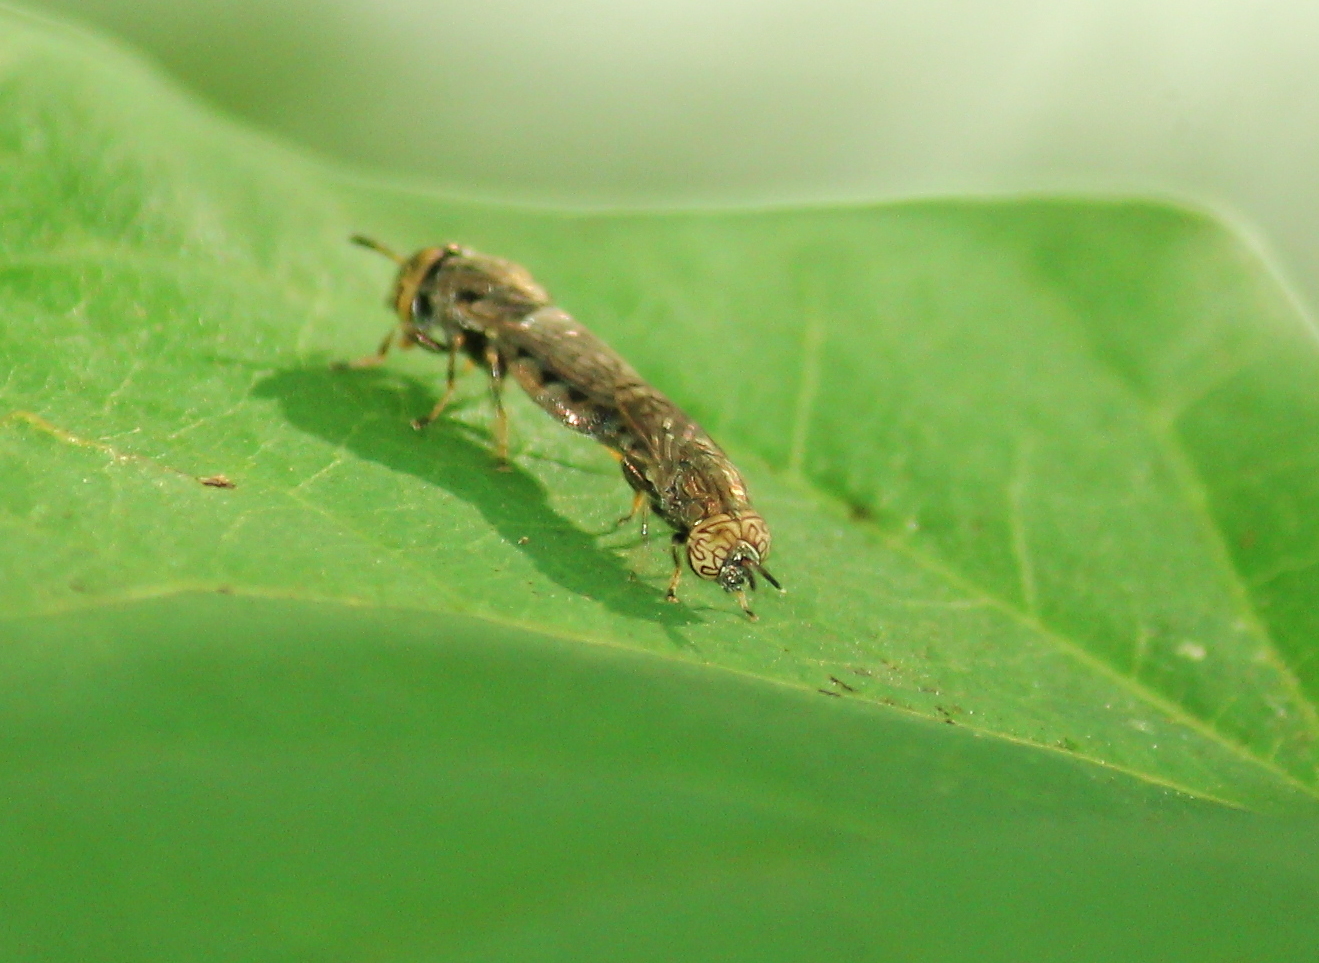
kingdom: Animalia
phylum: Arthropoda
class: Insecta
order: Diptera
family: Syrphidae
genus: Orthonevra
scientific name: Orthonevra nitida
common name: Wavy mucksucker
